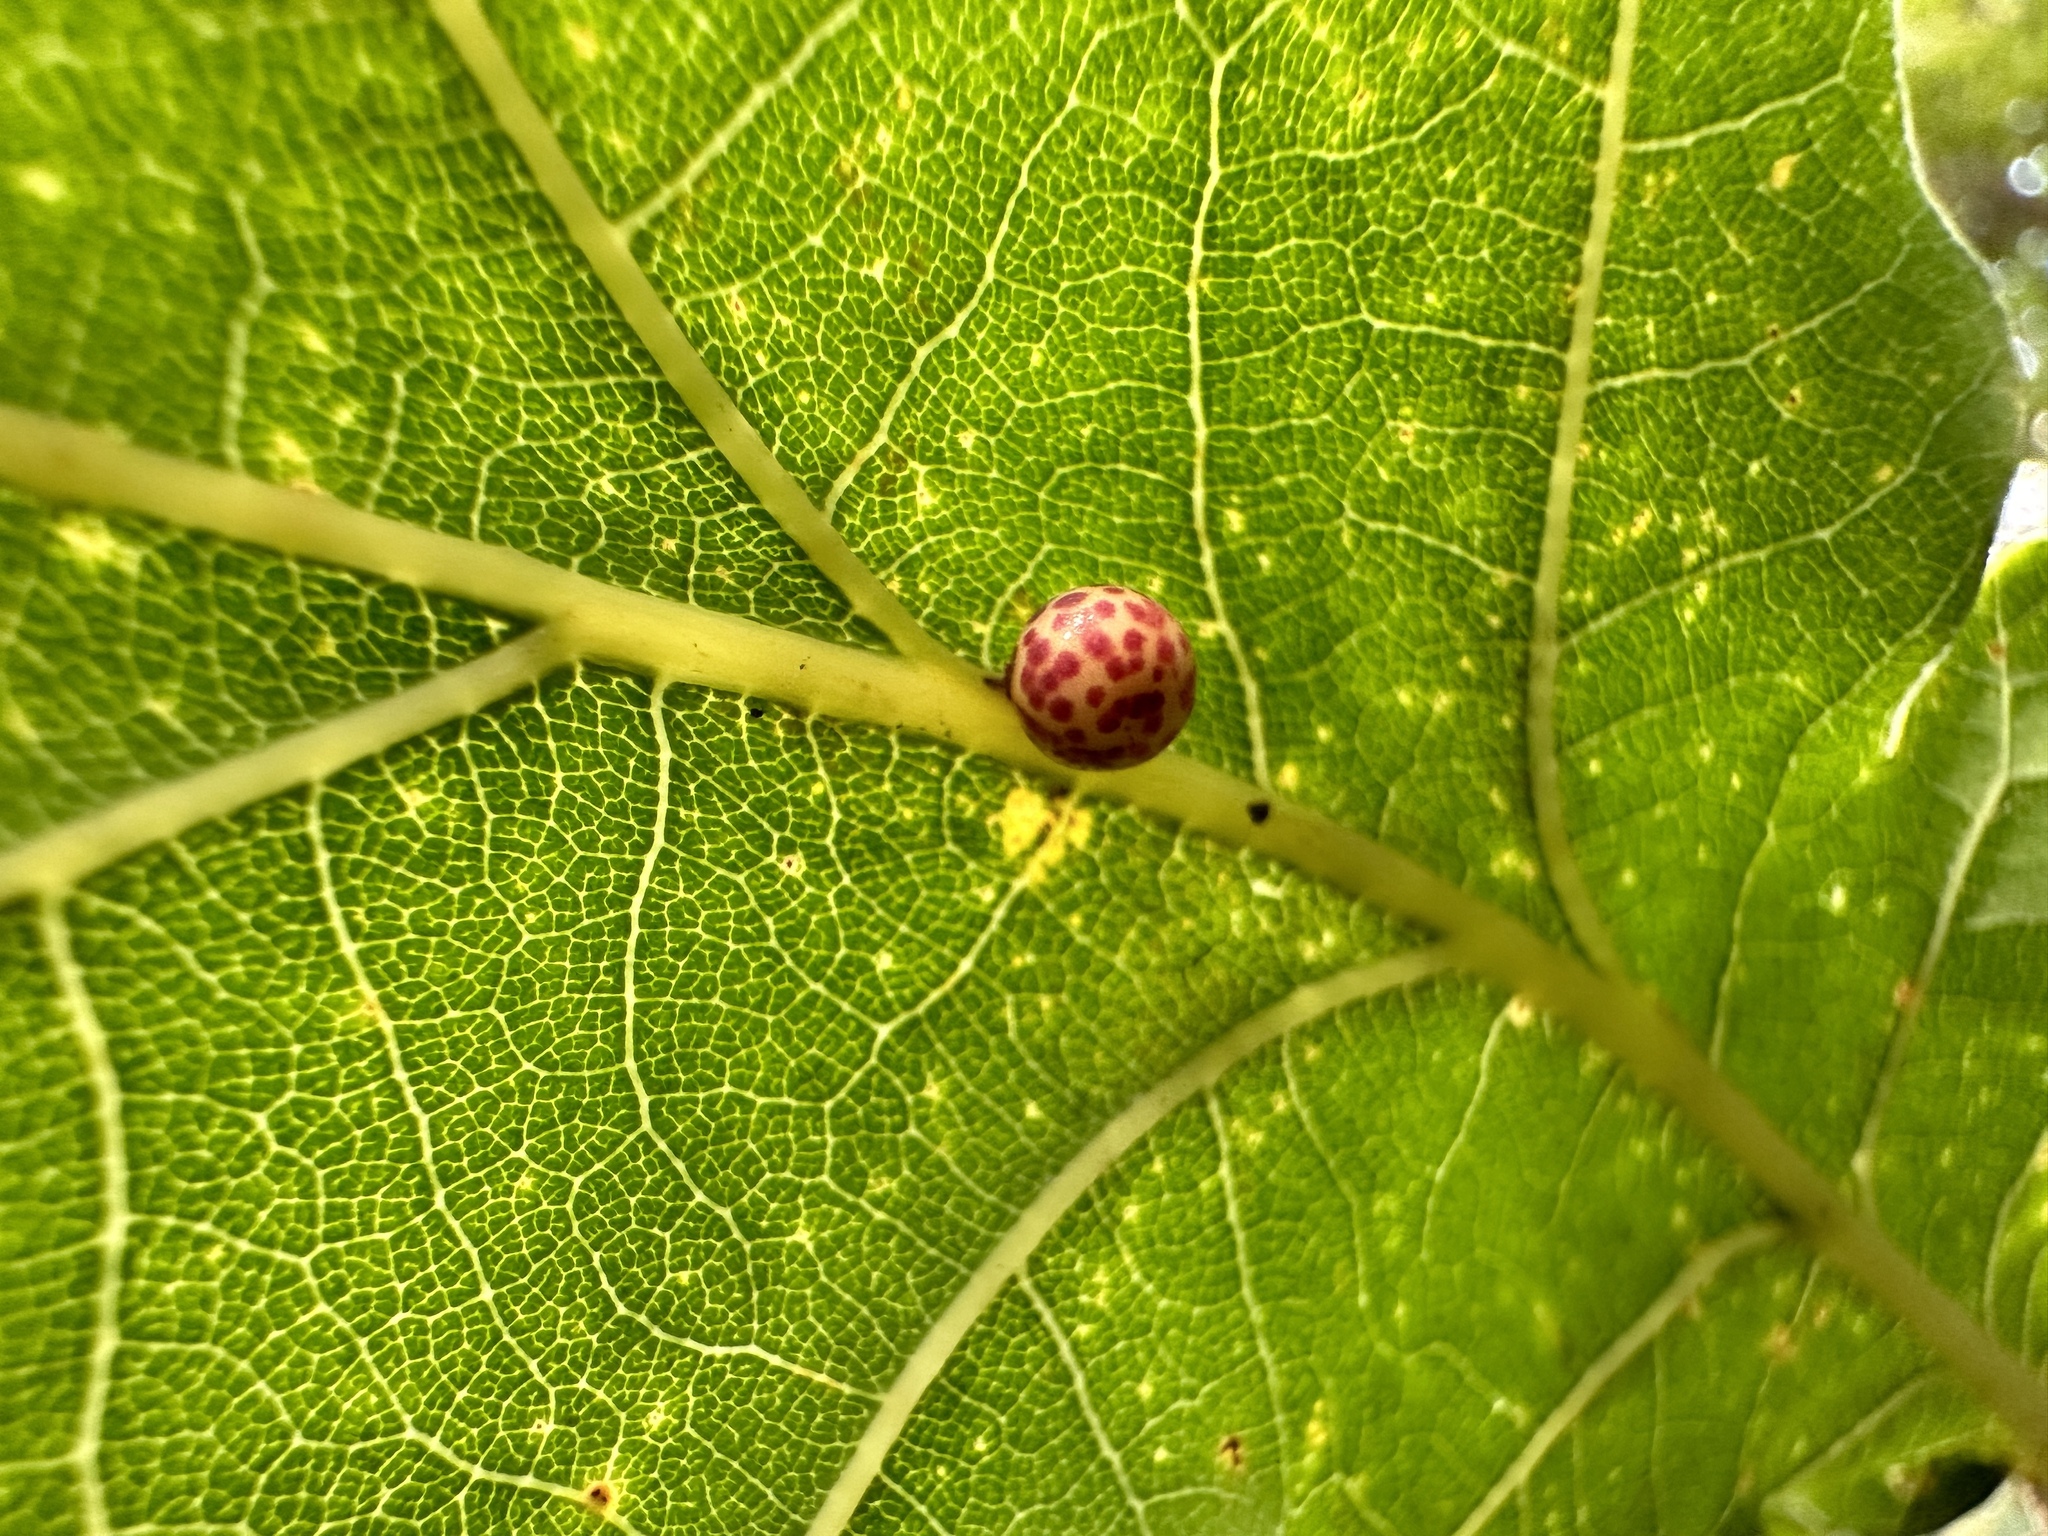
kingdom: Animalia
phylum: Arthropoda
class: Insecta
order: Hymenoptera
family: Cynipidae
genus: Neuroterus
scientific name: Neuroterus anthracinus
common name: Oyster gall
